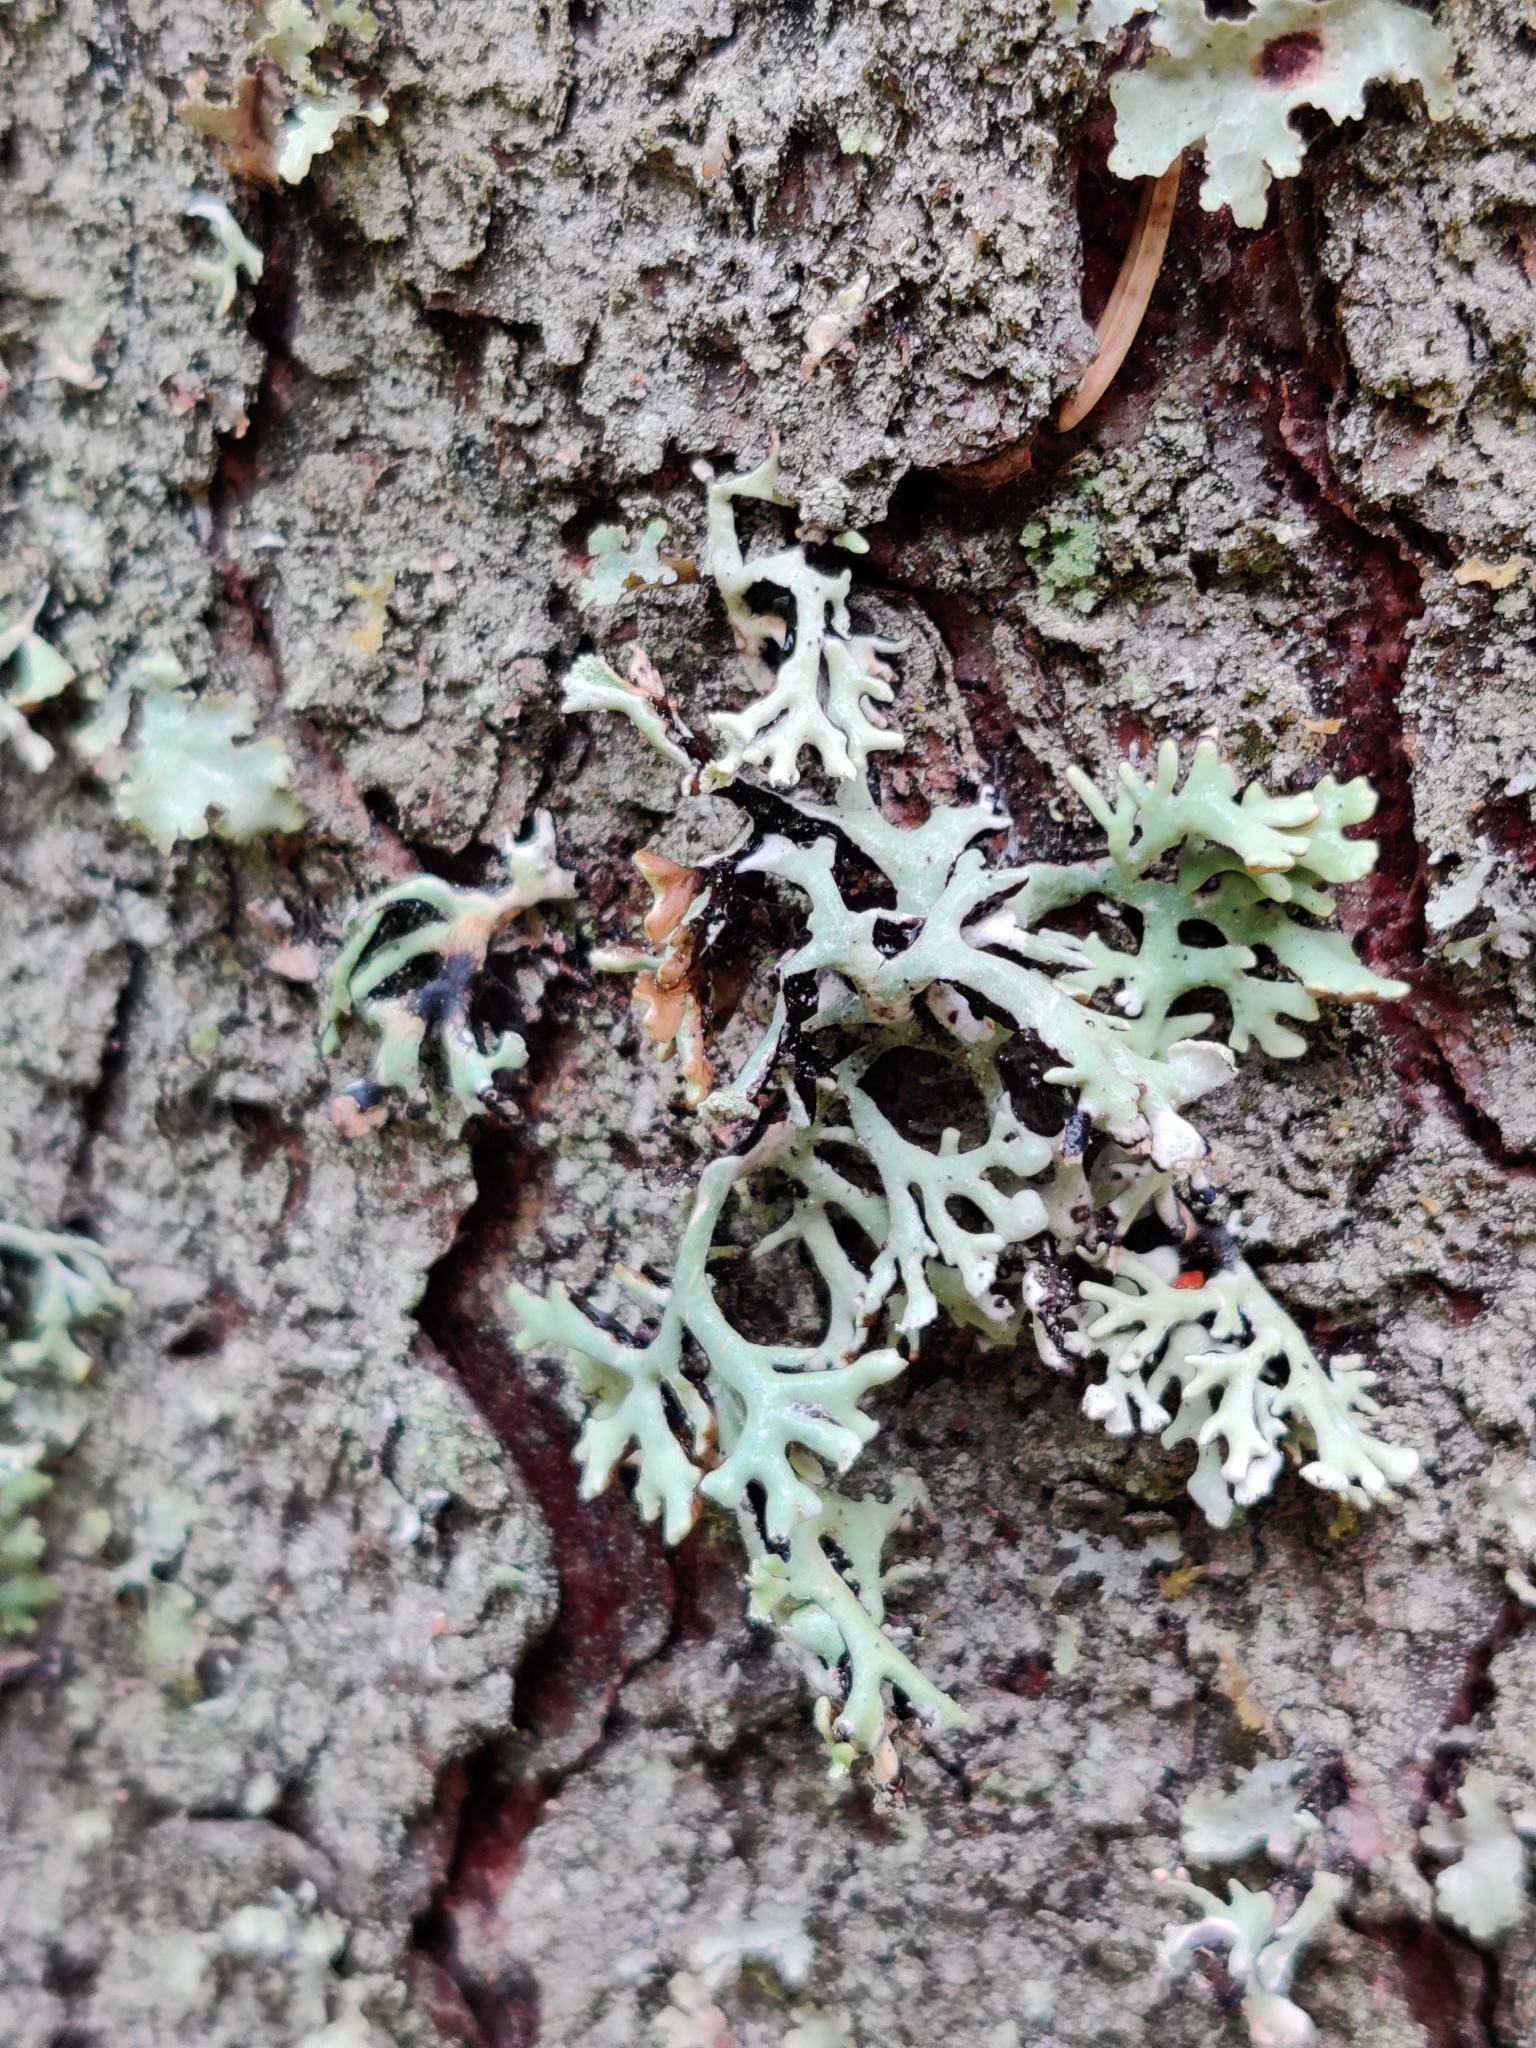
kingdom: Fungi
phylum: Ascomycota
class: Lecanoromycetes
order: Lecanorales
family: Parmeliaceae
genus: Hypogymnia
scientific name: Hypogymnia physodes
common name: Dark crottle
